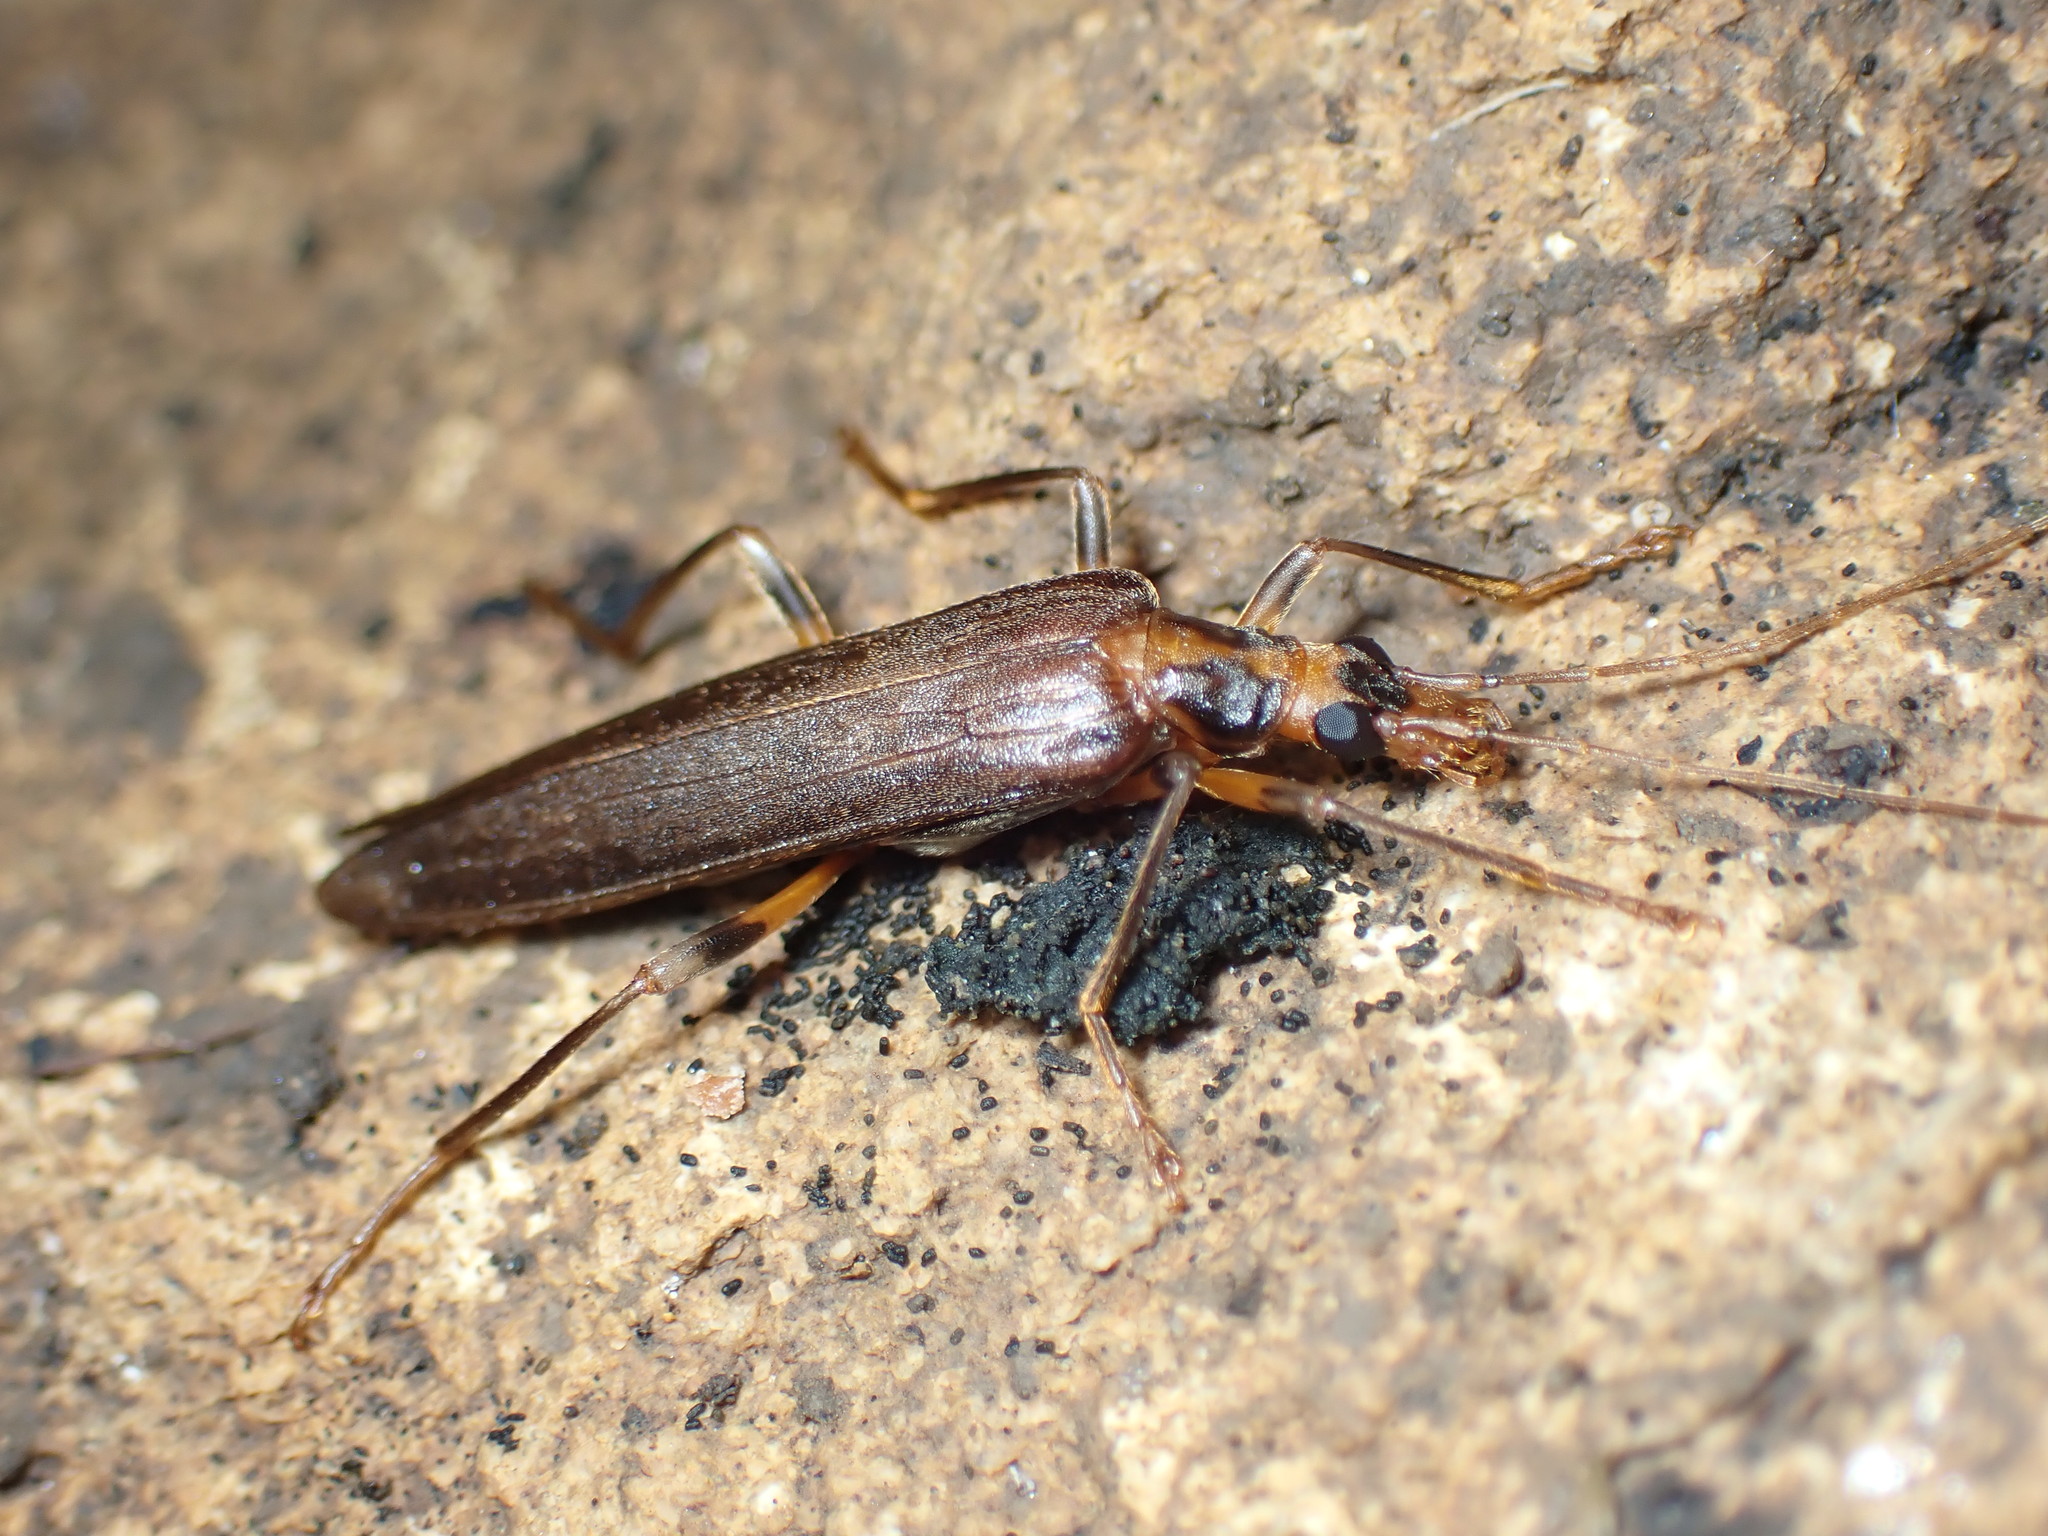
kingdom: Animalia
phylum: Arthropoda
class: Insecta
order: Coleoptera
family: Oedemeridae
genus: Oedemera
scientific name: Oedemera femoralis
